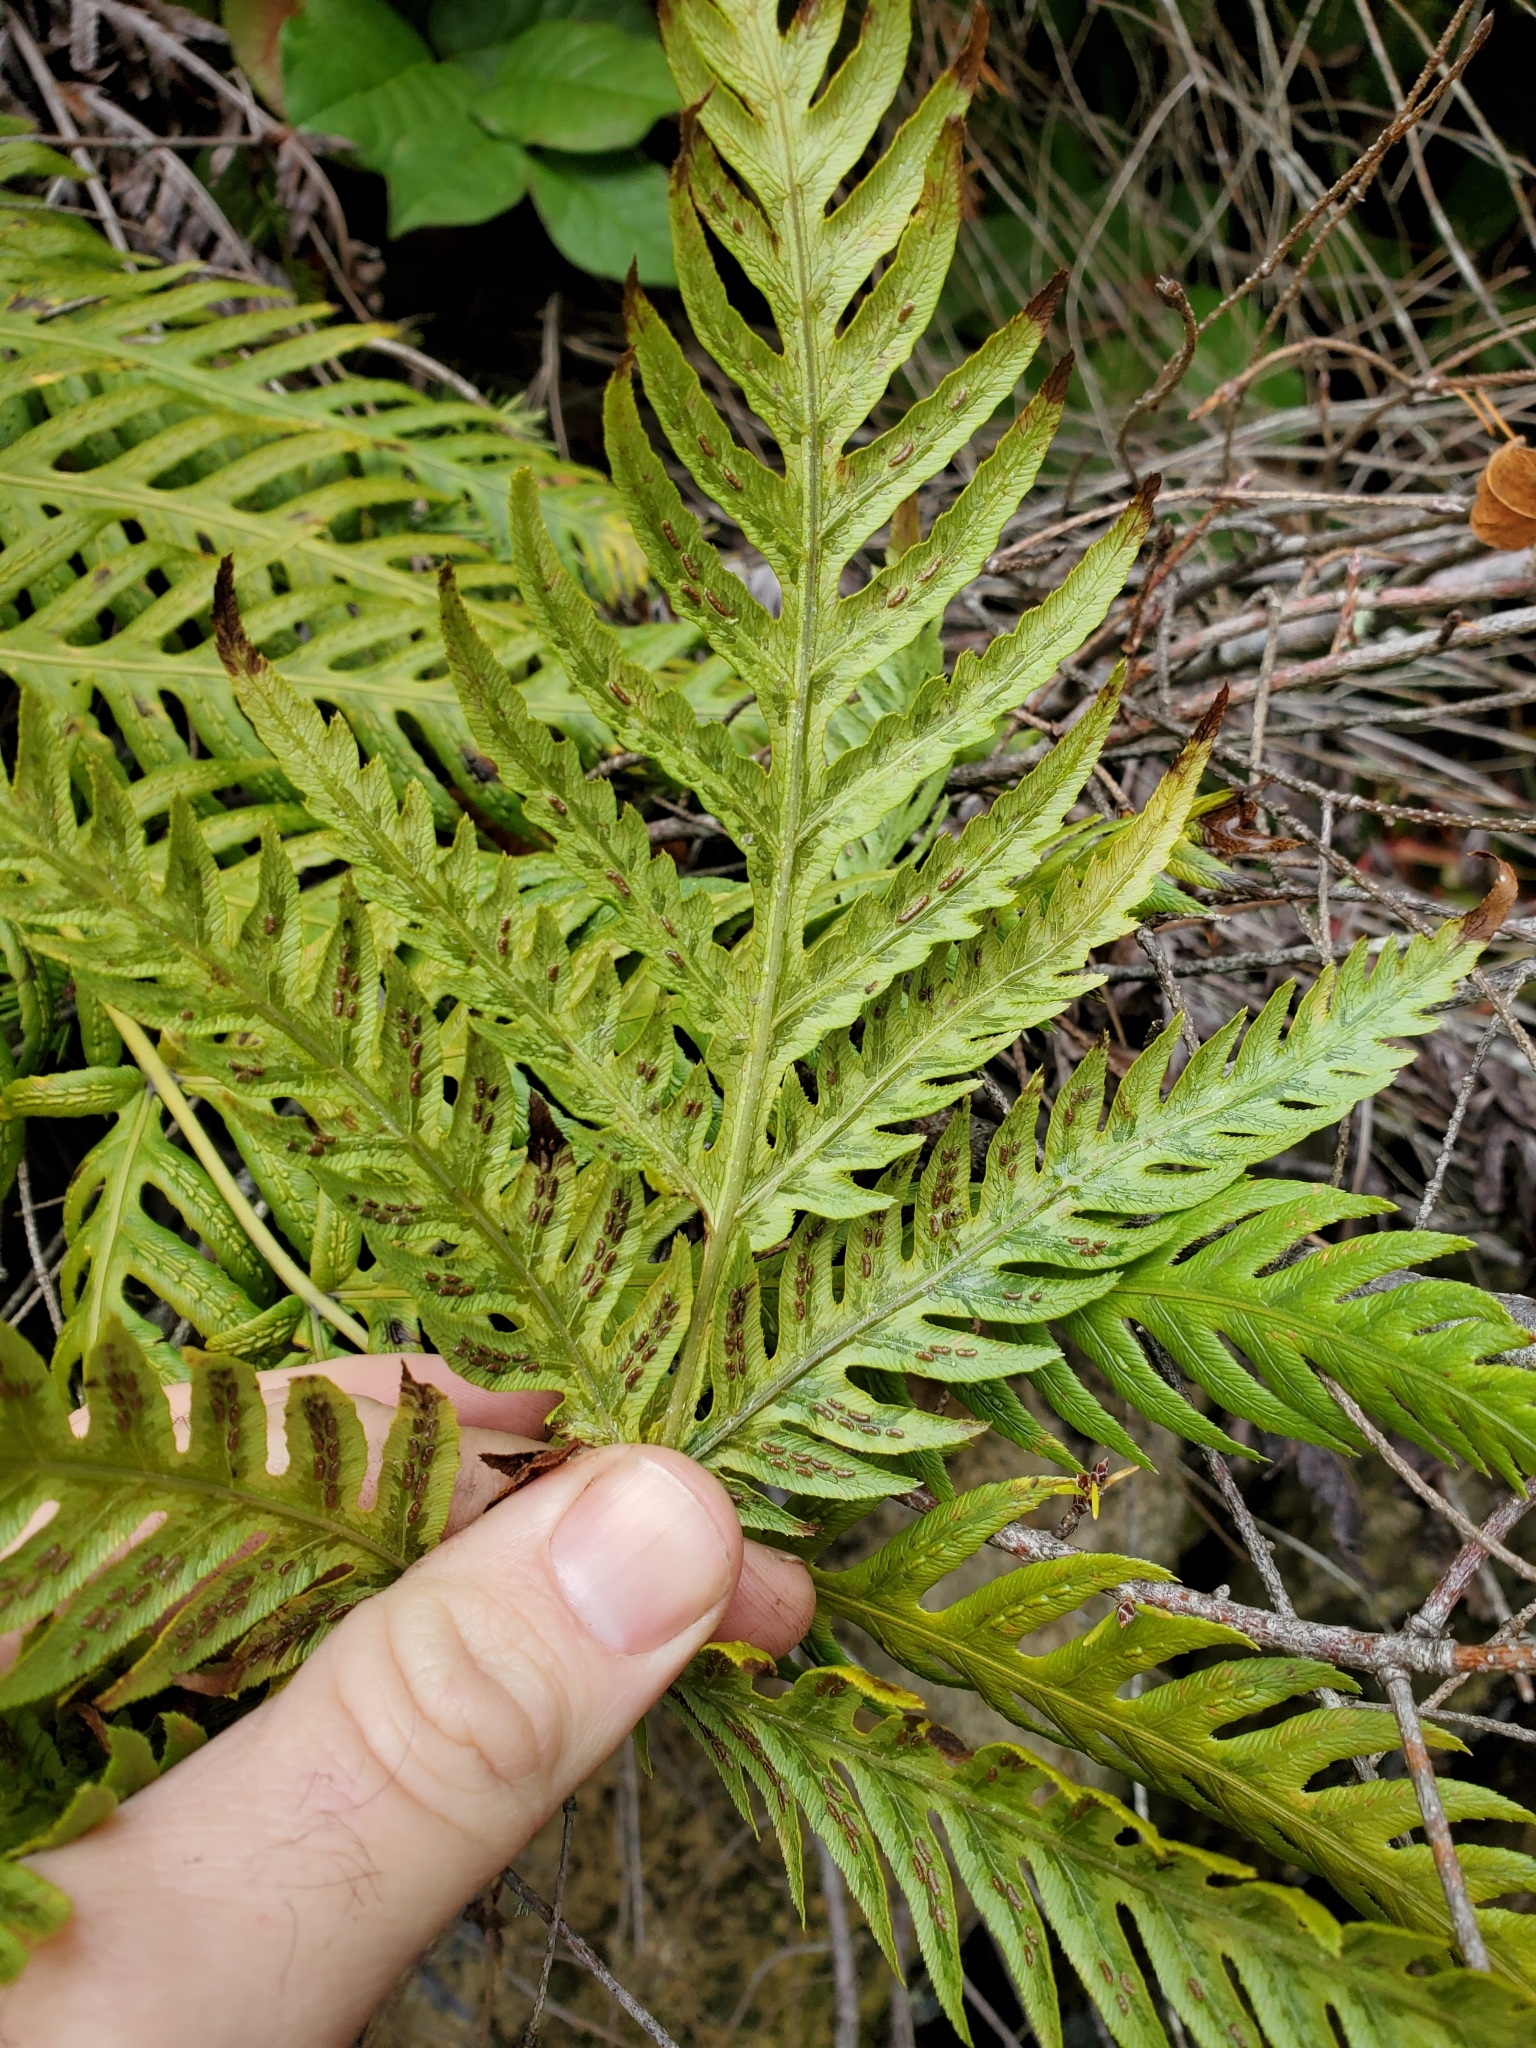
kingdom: Plantae
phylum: Tracheophyta
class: Polypodiopsida
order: Polypodiales
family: Blechnaceae
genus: Woodwardia
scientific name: Woodwardia fimbriata
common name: Giant chain fern
